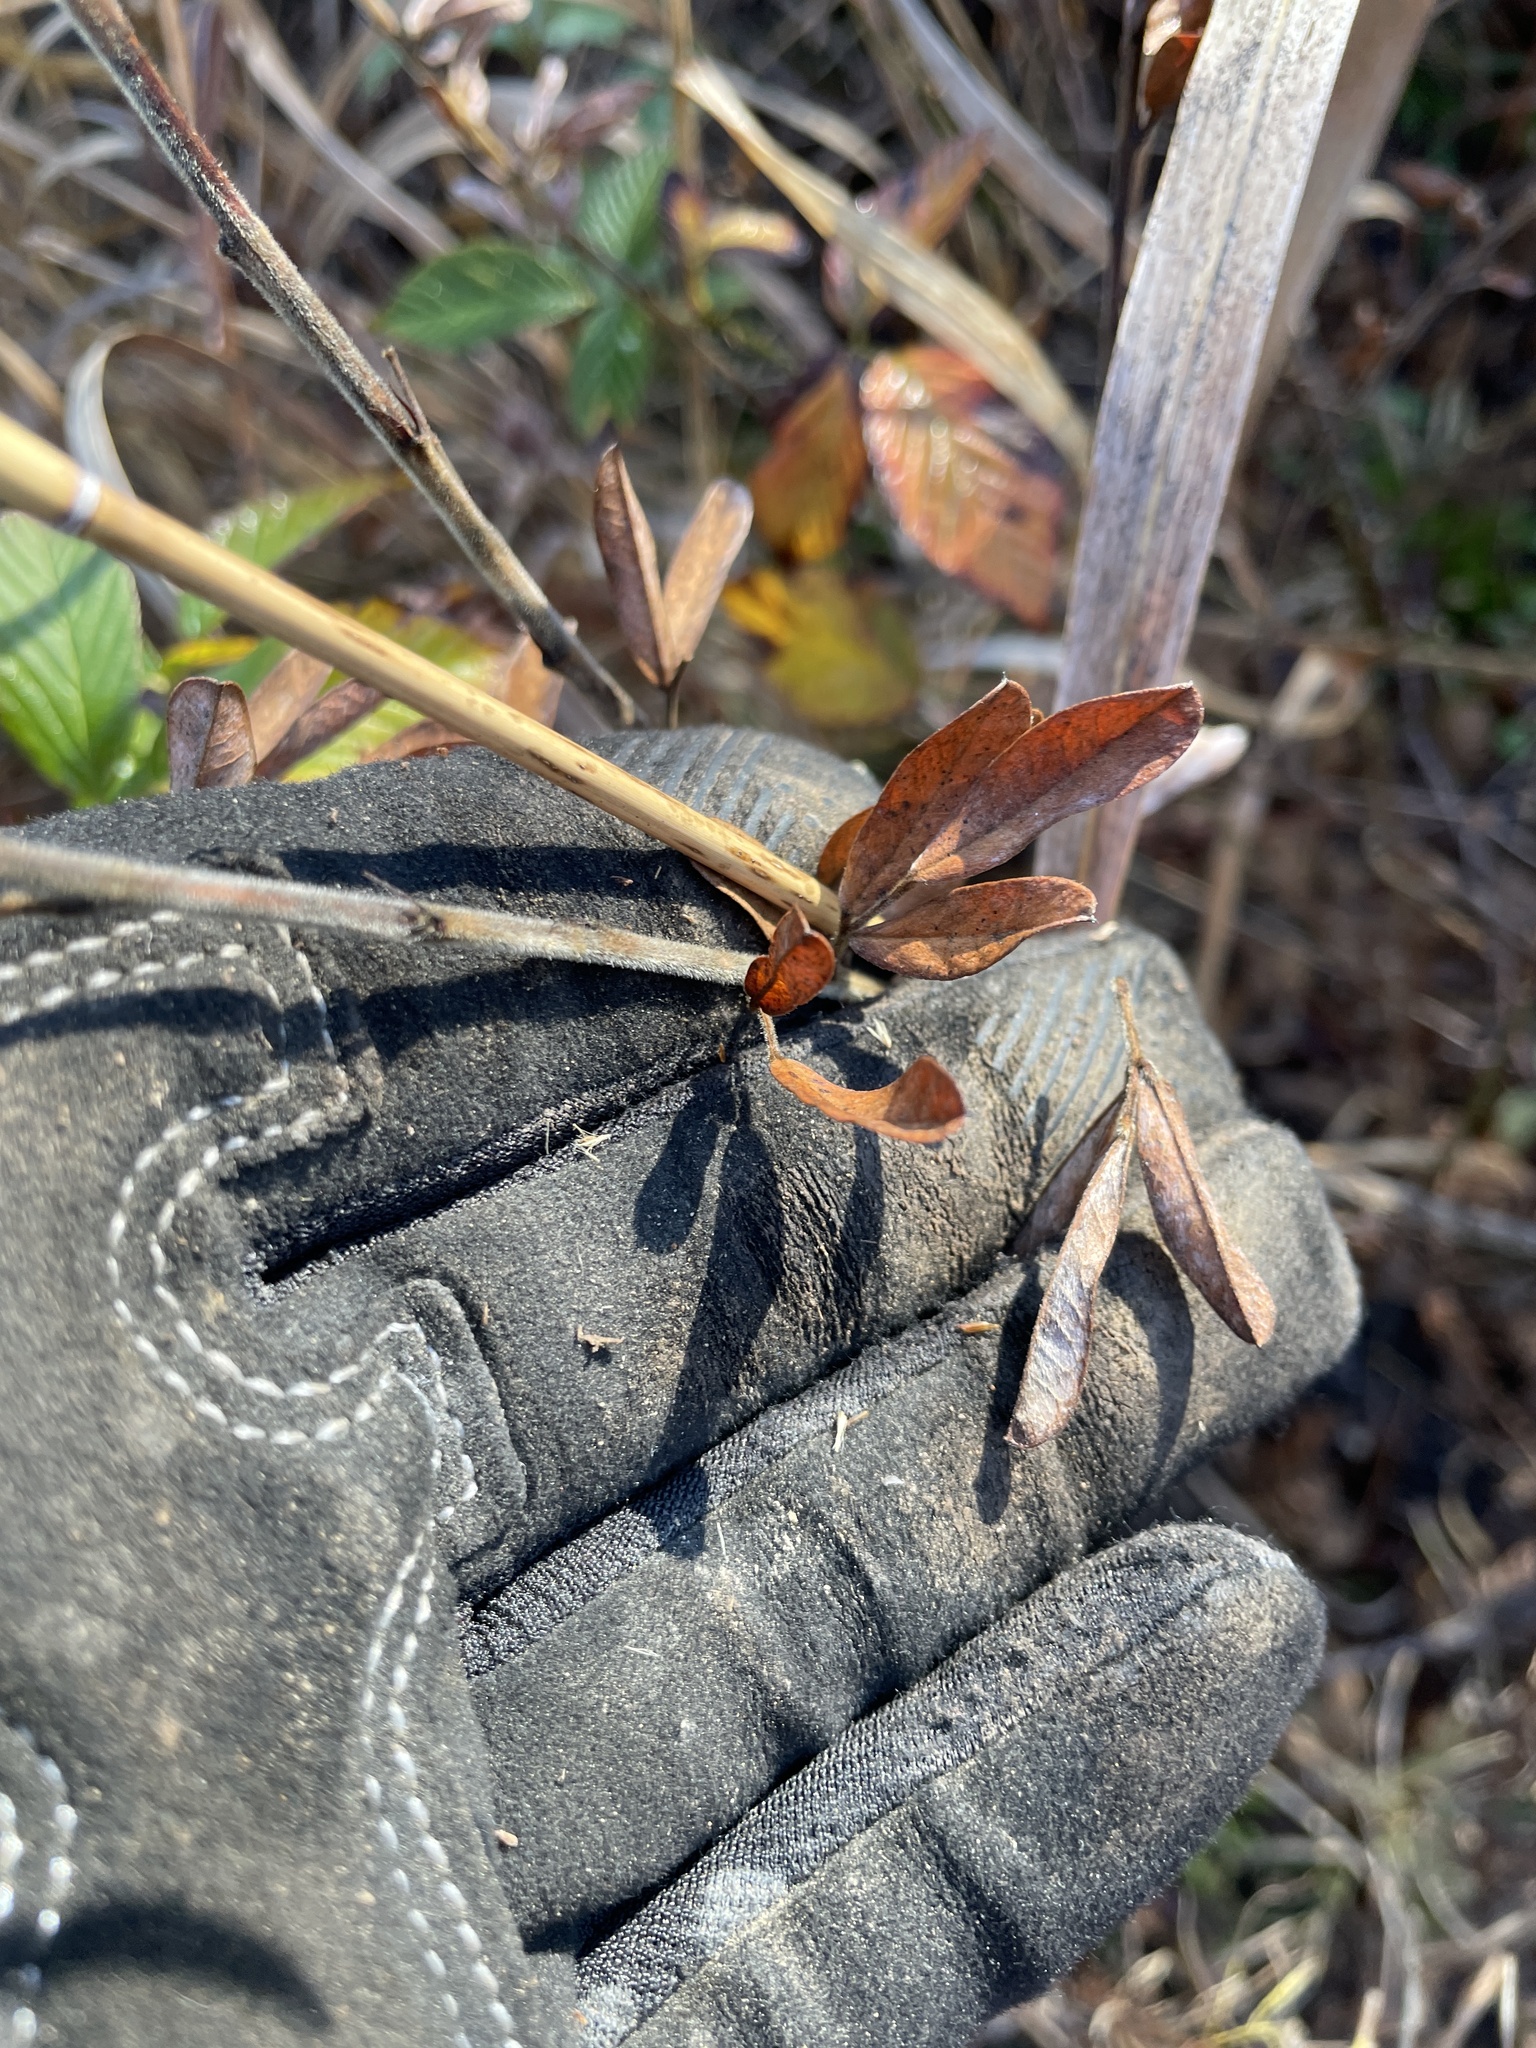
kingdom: Plantae
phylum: Tracheophyta
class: Magnoliopsida
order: Fabales
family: Fabaceae
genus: Lespedeza
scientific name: Lespedeza capitata
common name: Dusty clover
